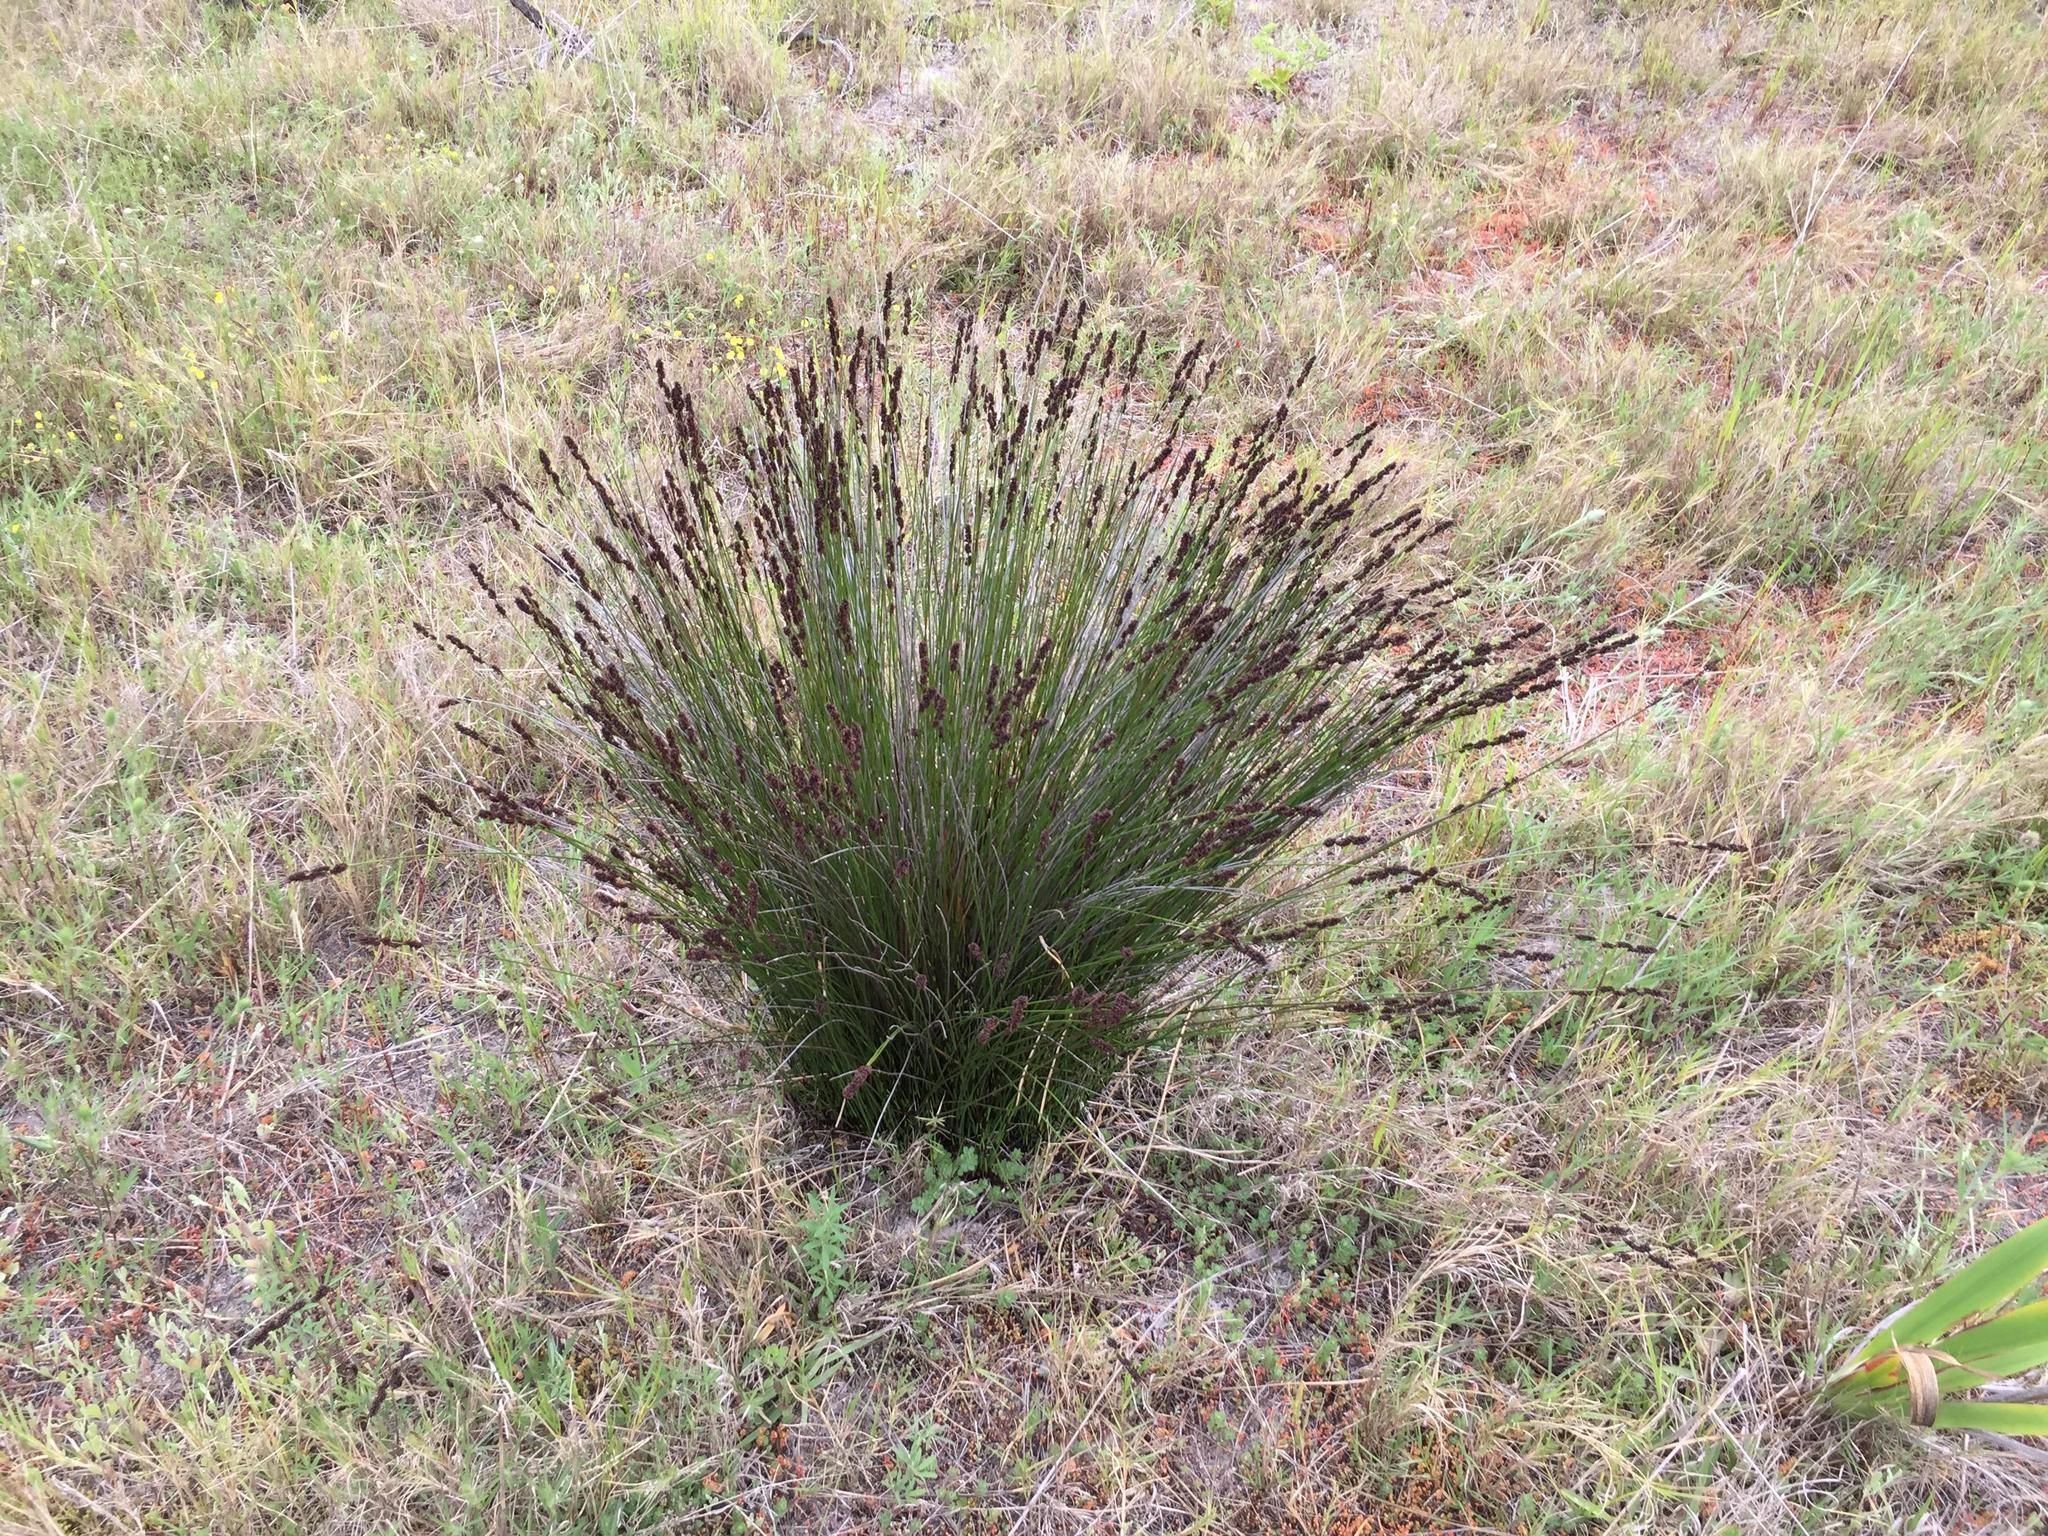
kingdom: Plantae
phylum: Tracheophyta
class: Liliopsida
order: Poales
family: Restionaceae
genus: Elegia
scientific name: Elegia nuda
